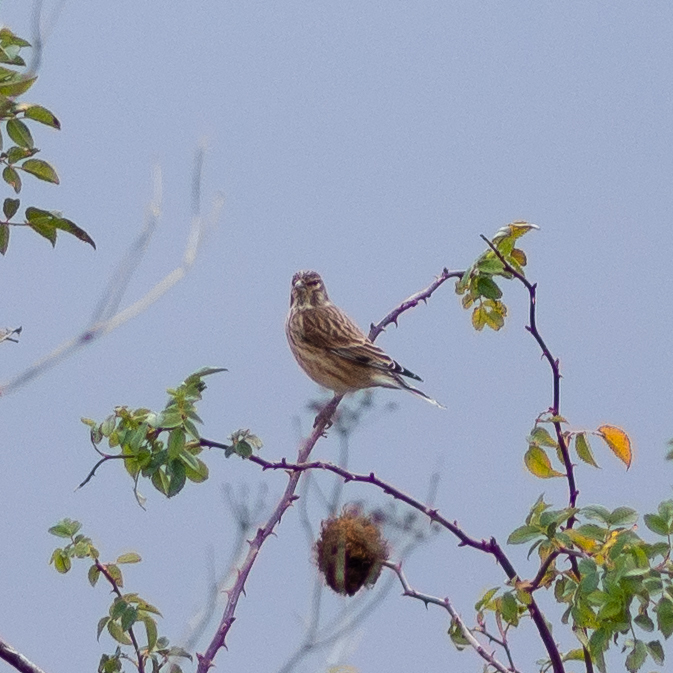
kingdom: Animalia
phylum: Chordata
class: Aves
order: Passeriformes
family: Fringillidae
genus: Linaria
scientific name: Linaria cannabina
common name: Common linnet
